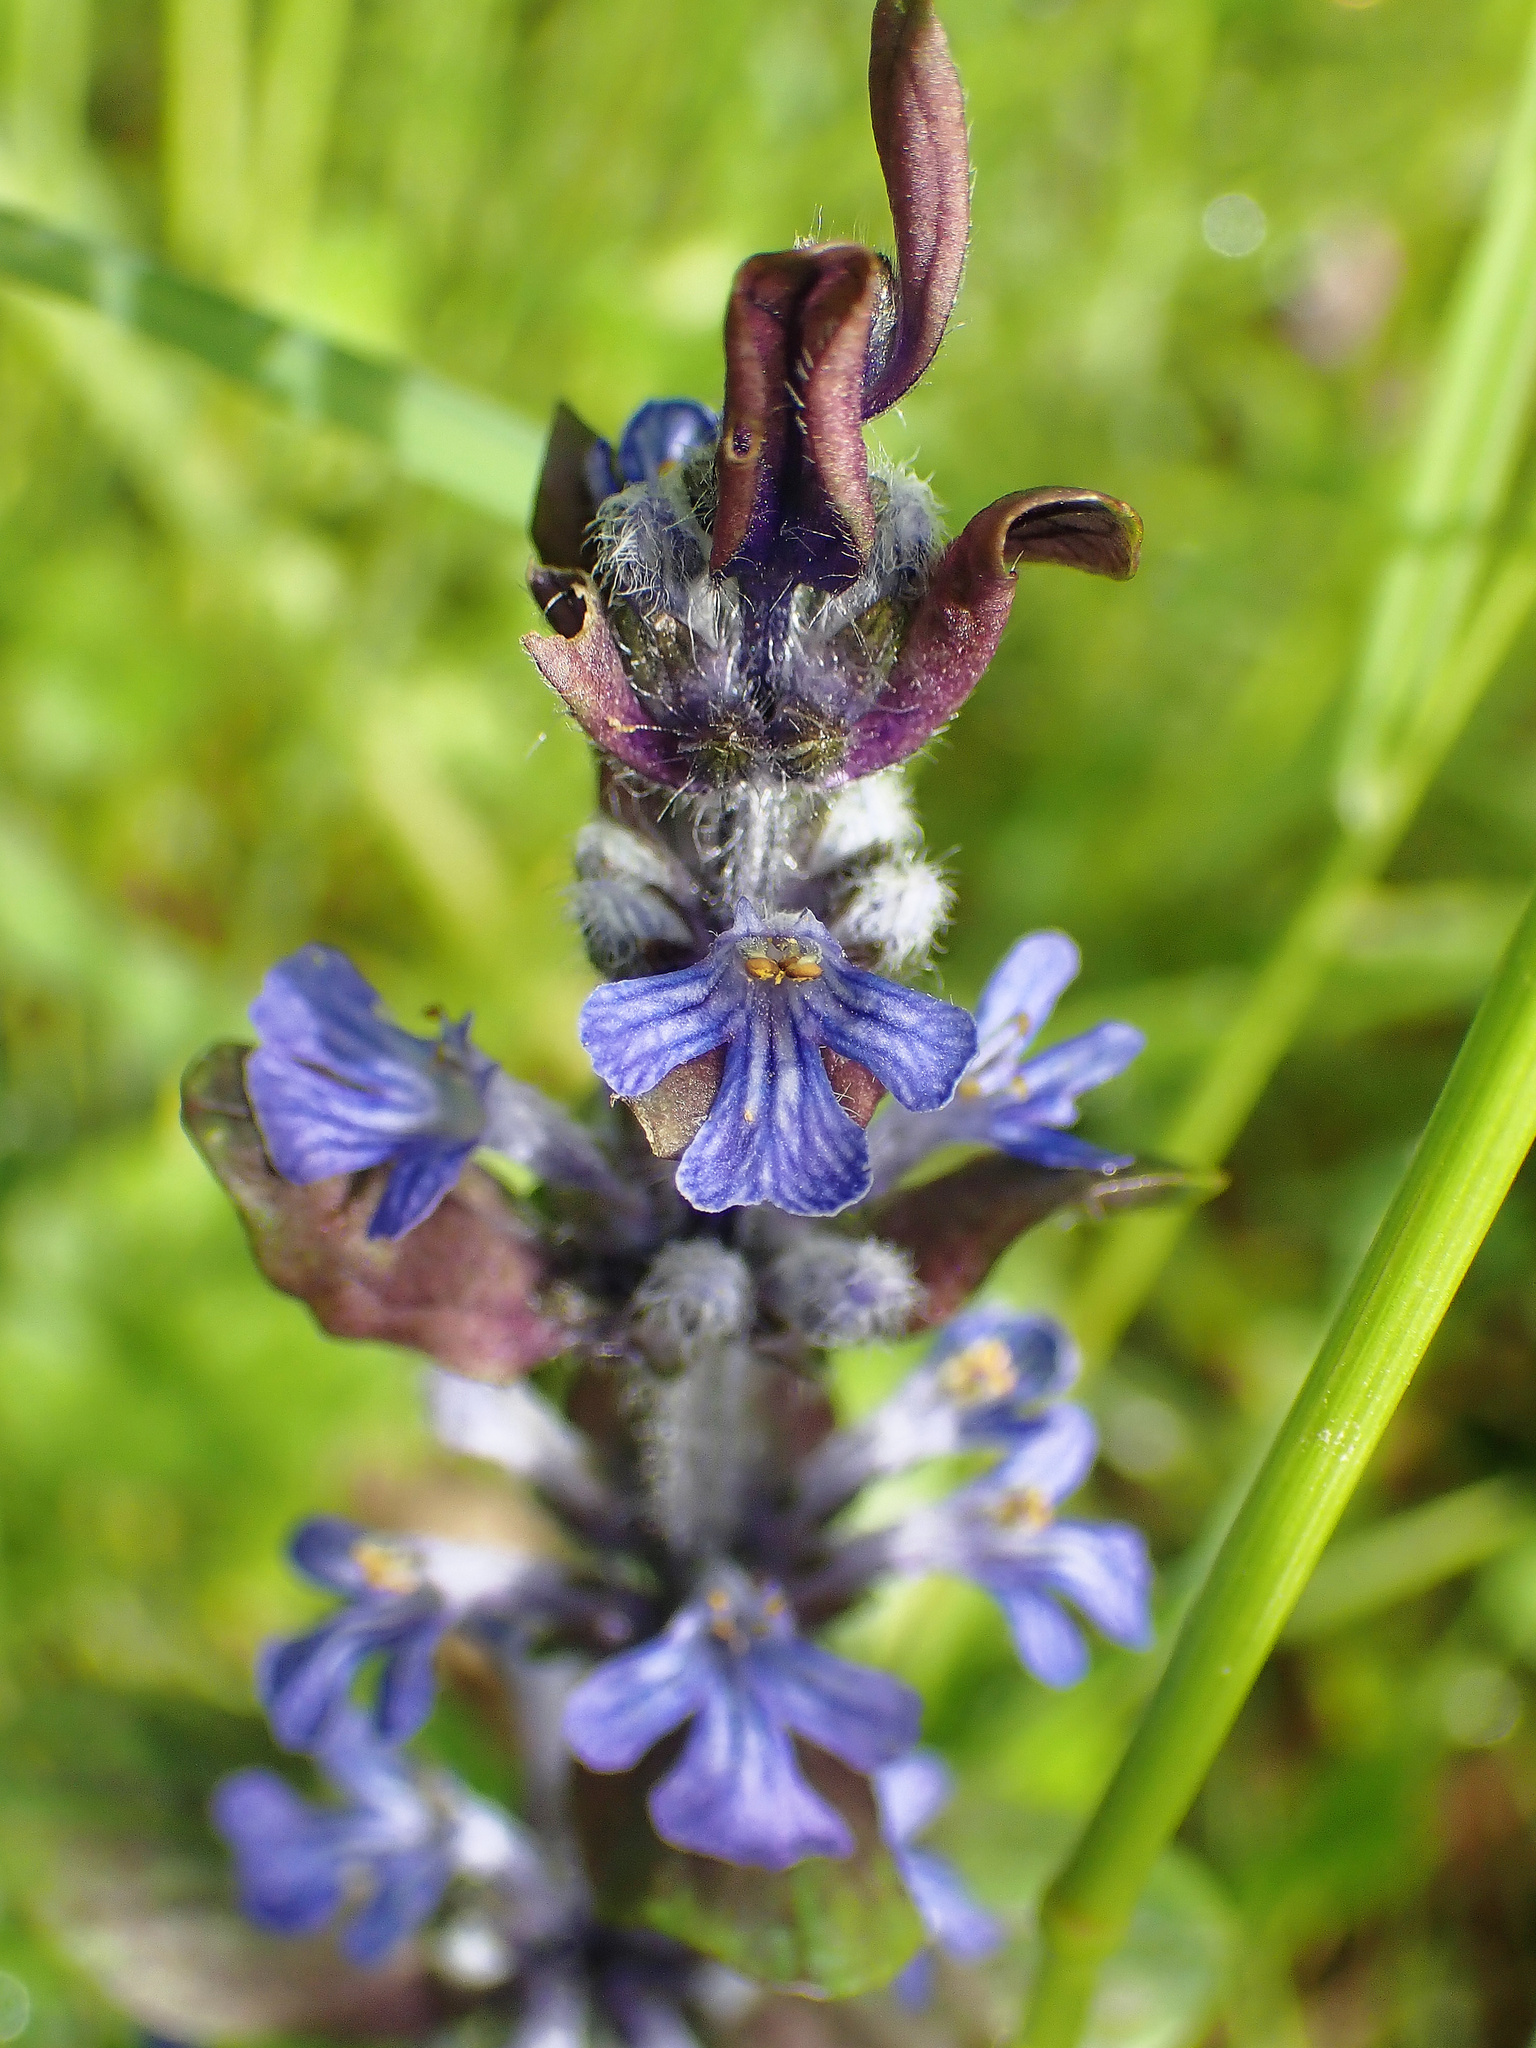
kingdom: Plantae
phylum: Tracheophyta
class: Magnoliopsida
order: Lamiales
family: Lamiaceae
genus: Ajuga
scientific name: Ajuga reptans
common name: Bugle
